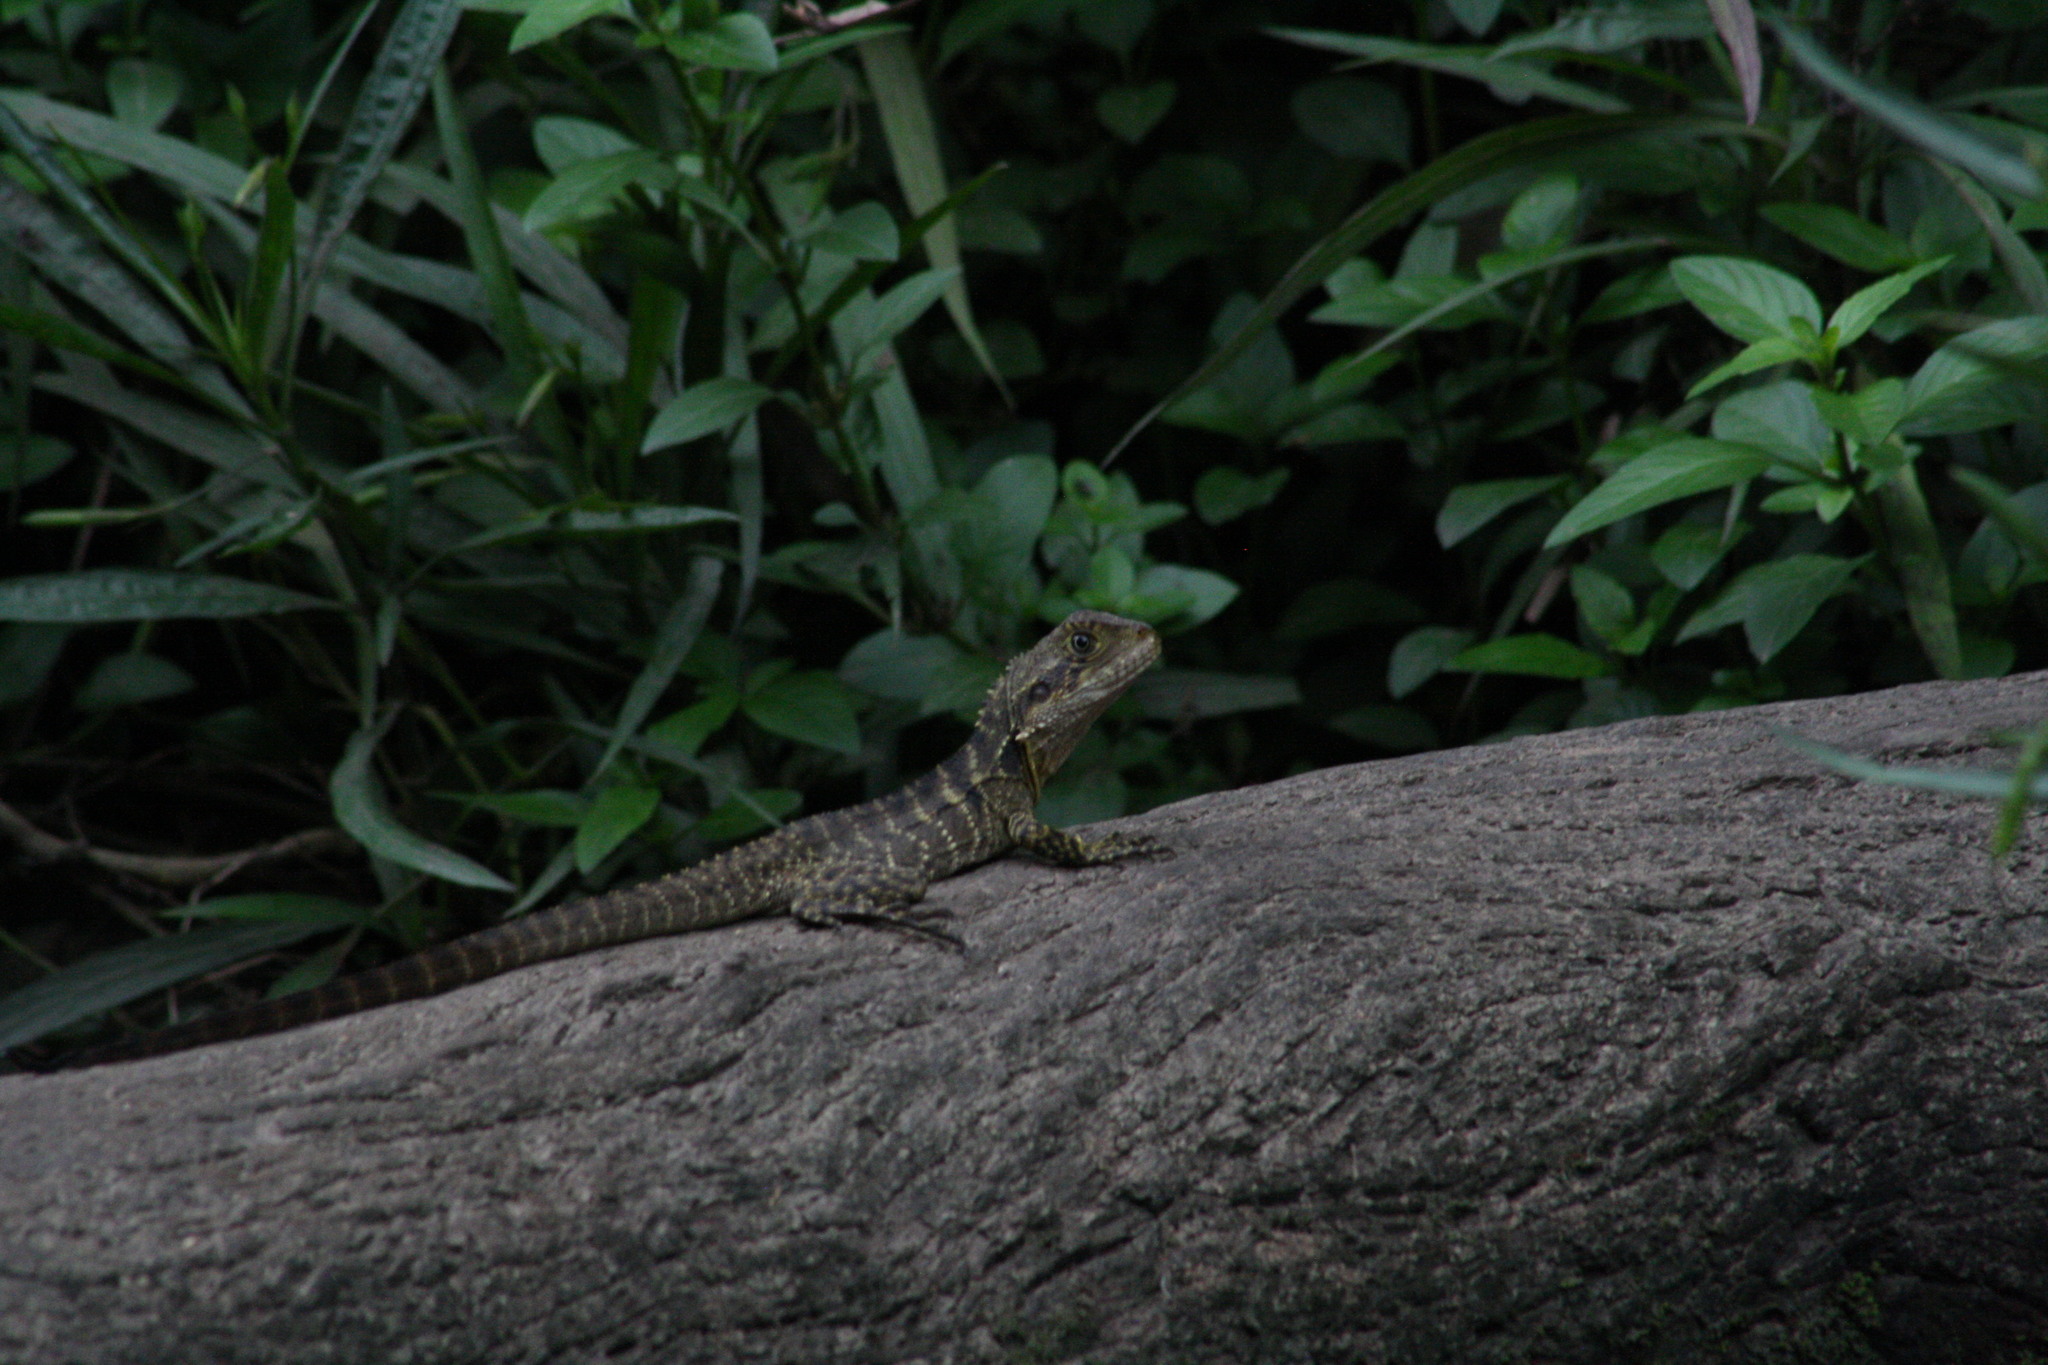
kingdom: Animalia
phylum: Chordata
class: Squamata
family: Agamidae
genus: Intellagama
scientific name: Intellagama lesueurii
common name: Eastern water dragon
